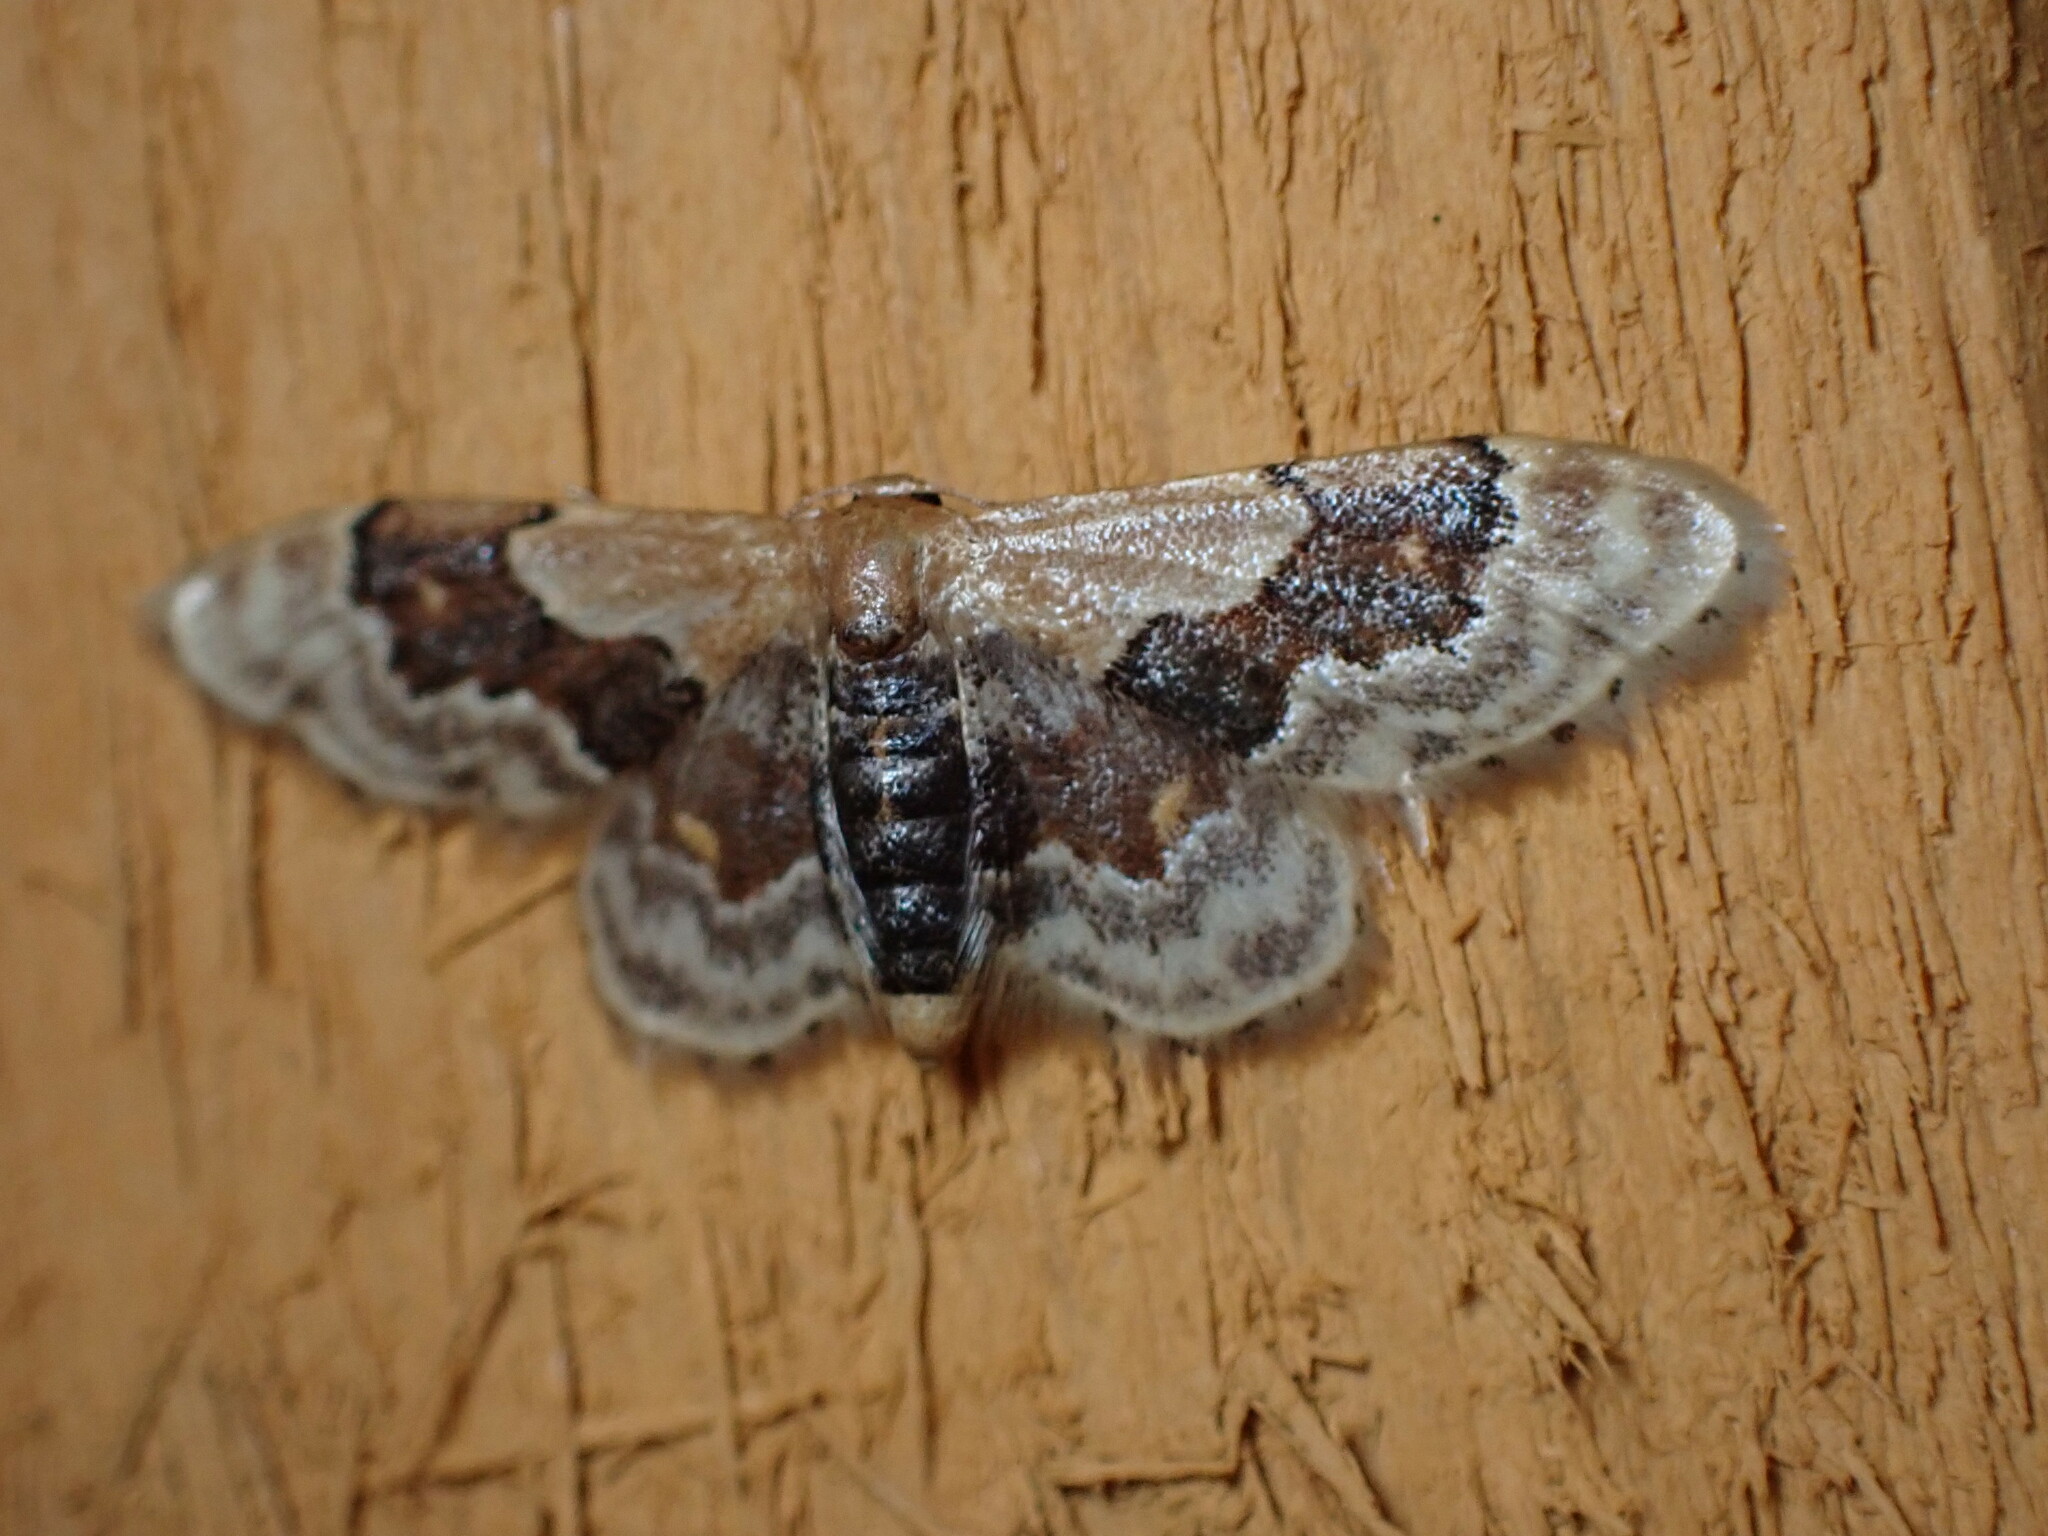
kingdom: Animalia
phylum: Arthropoda
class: Insecta
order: Lepidoptera
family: Geometridae
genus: Idaea
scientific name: Idaea gemmata
